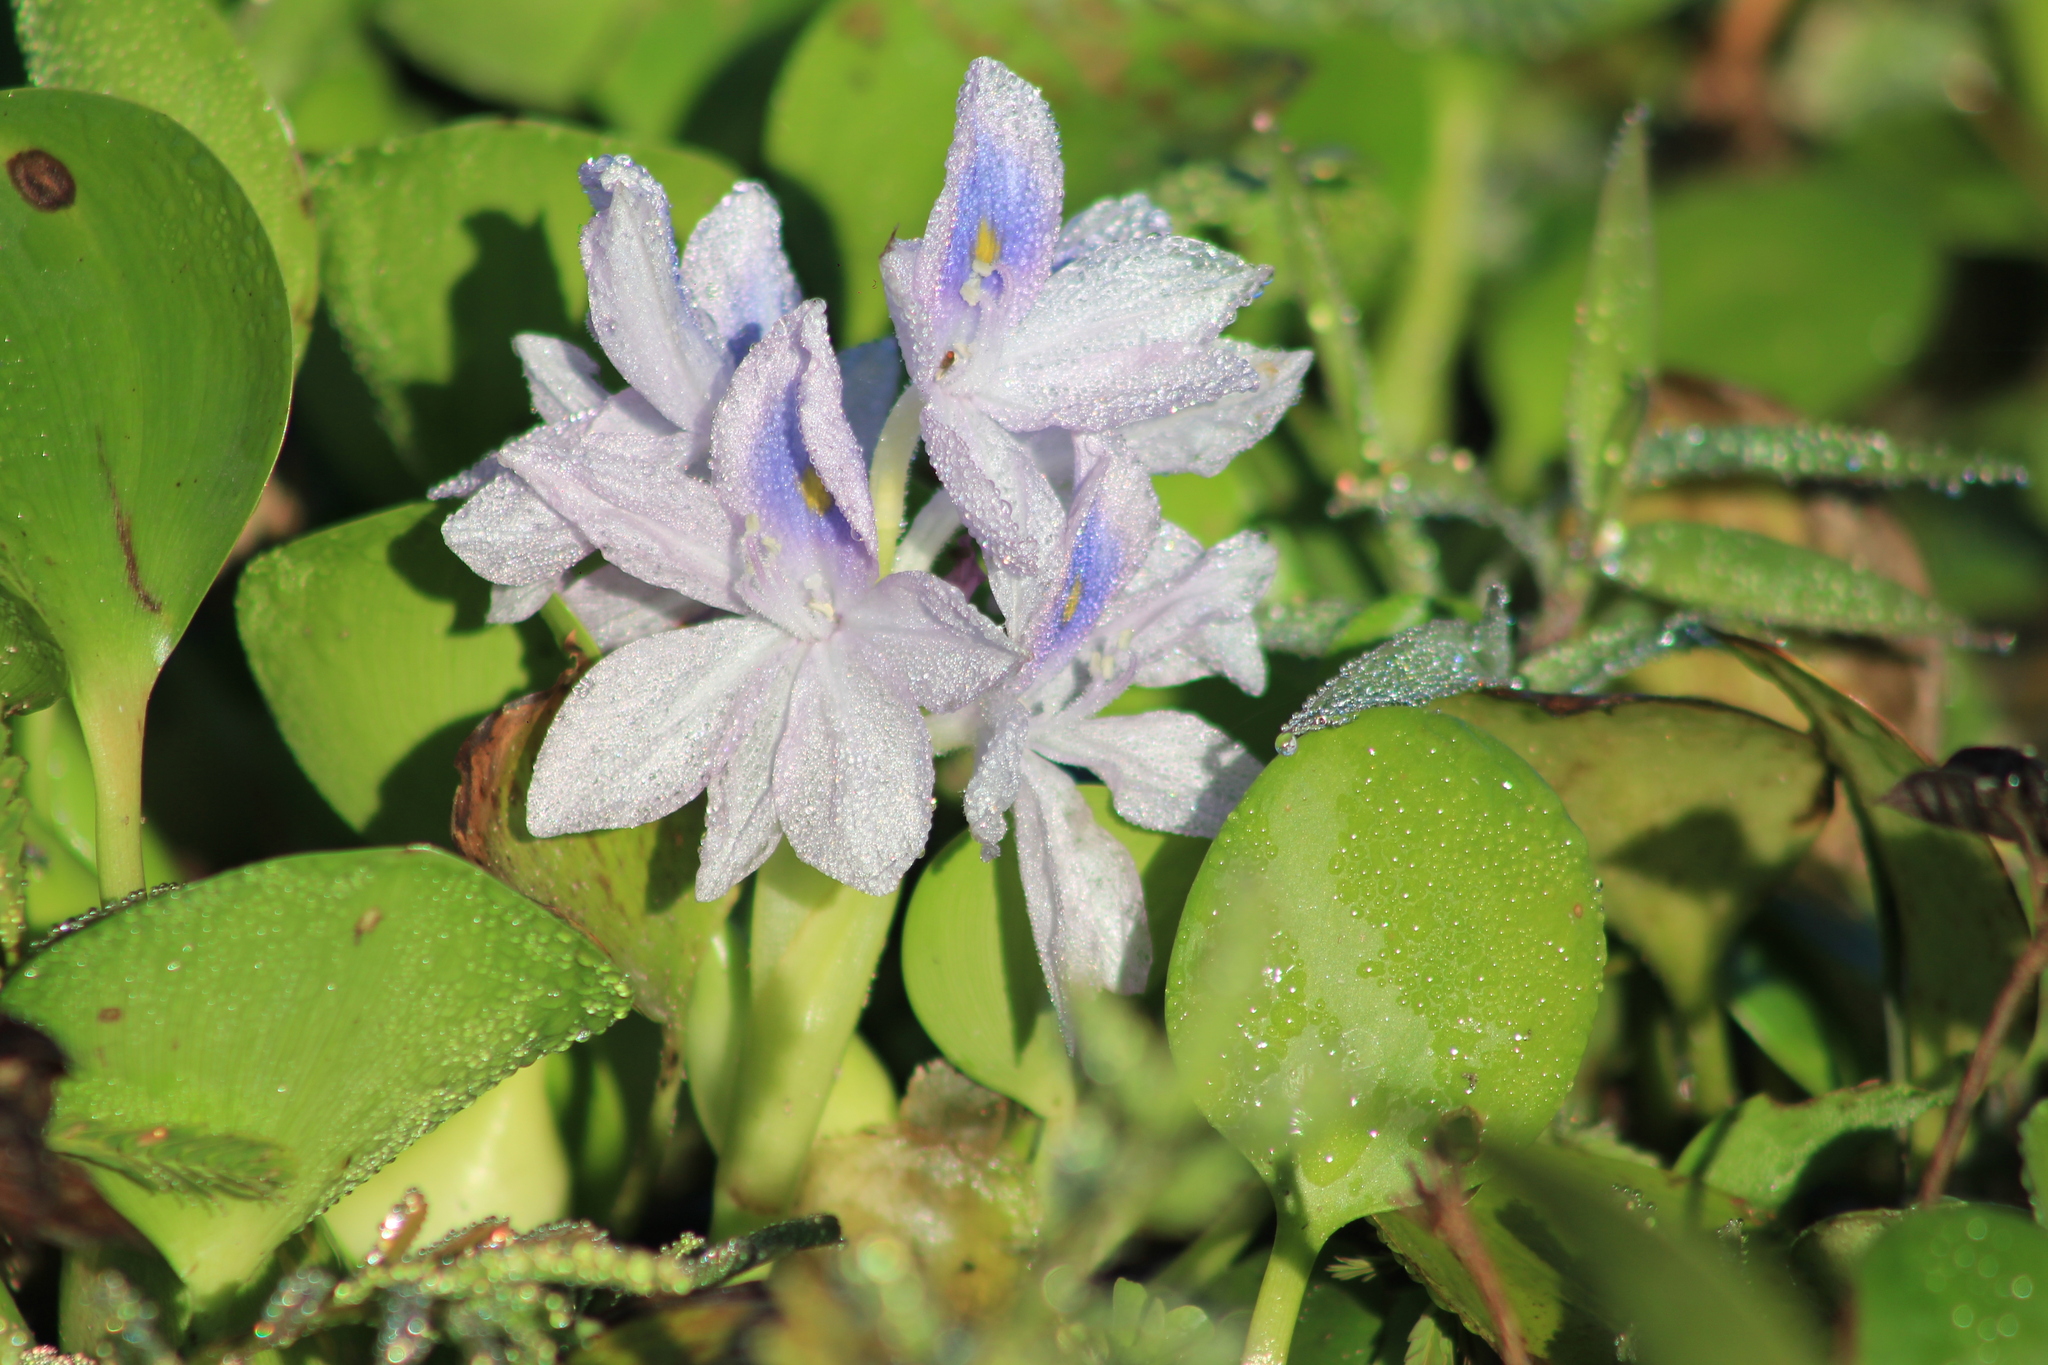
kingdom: Plantae
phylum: Tracheophyta
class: Liliopsida
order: Commelinales
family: Pontederiaceae
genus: Pontederia
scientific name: Pontederia crassipes
